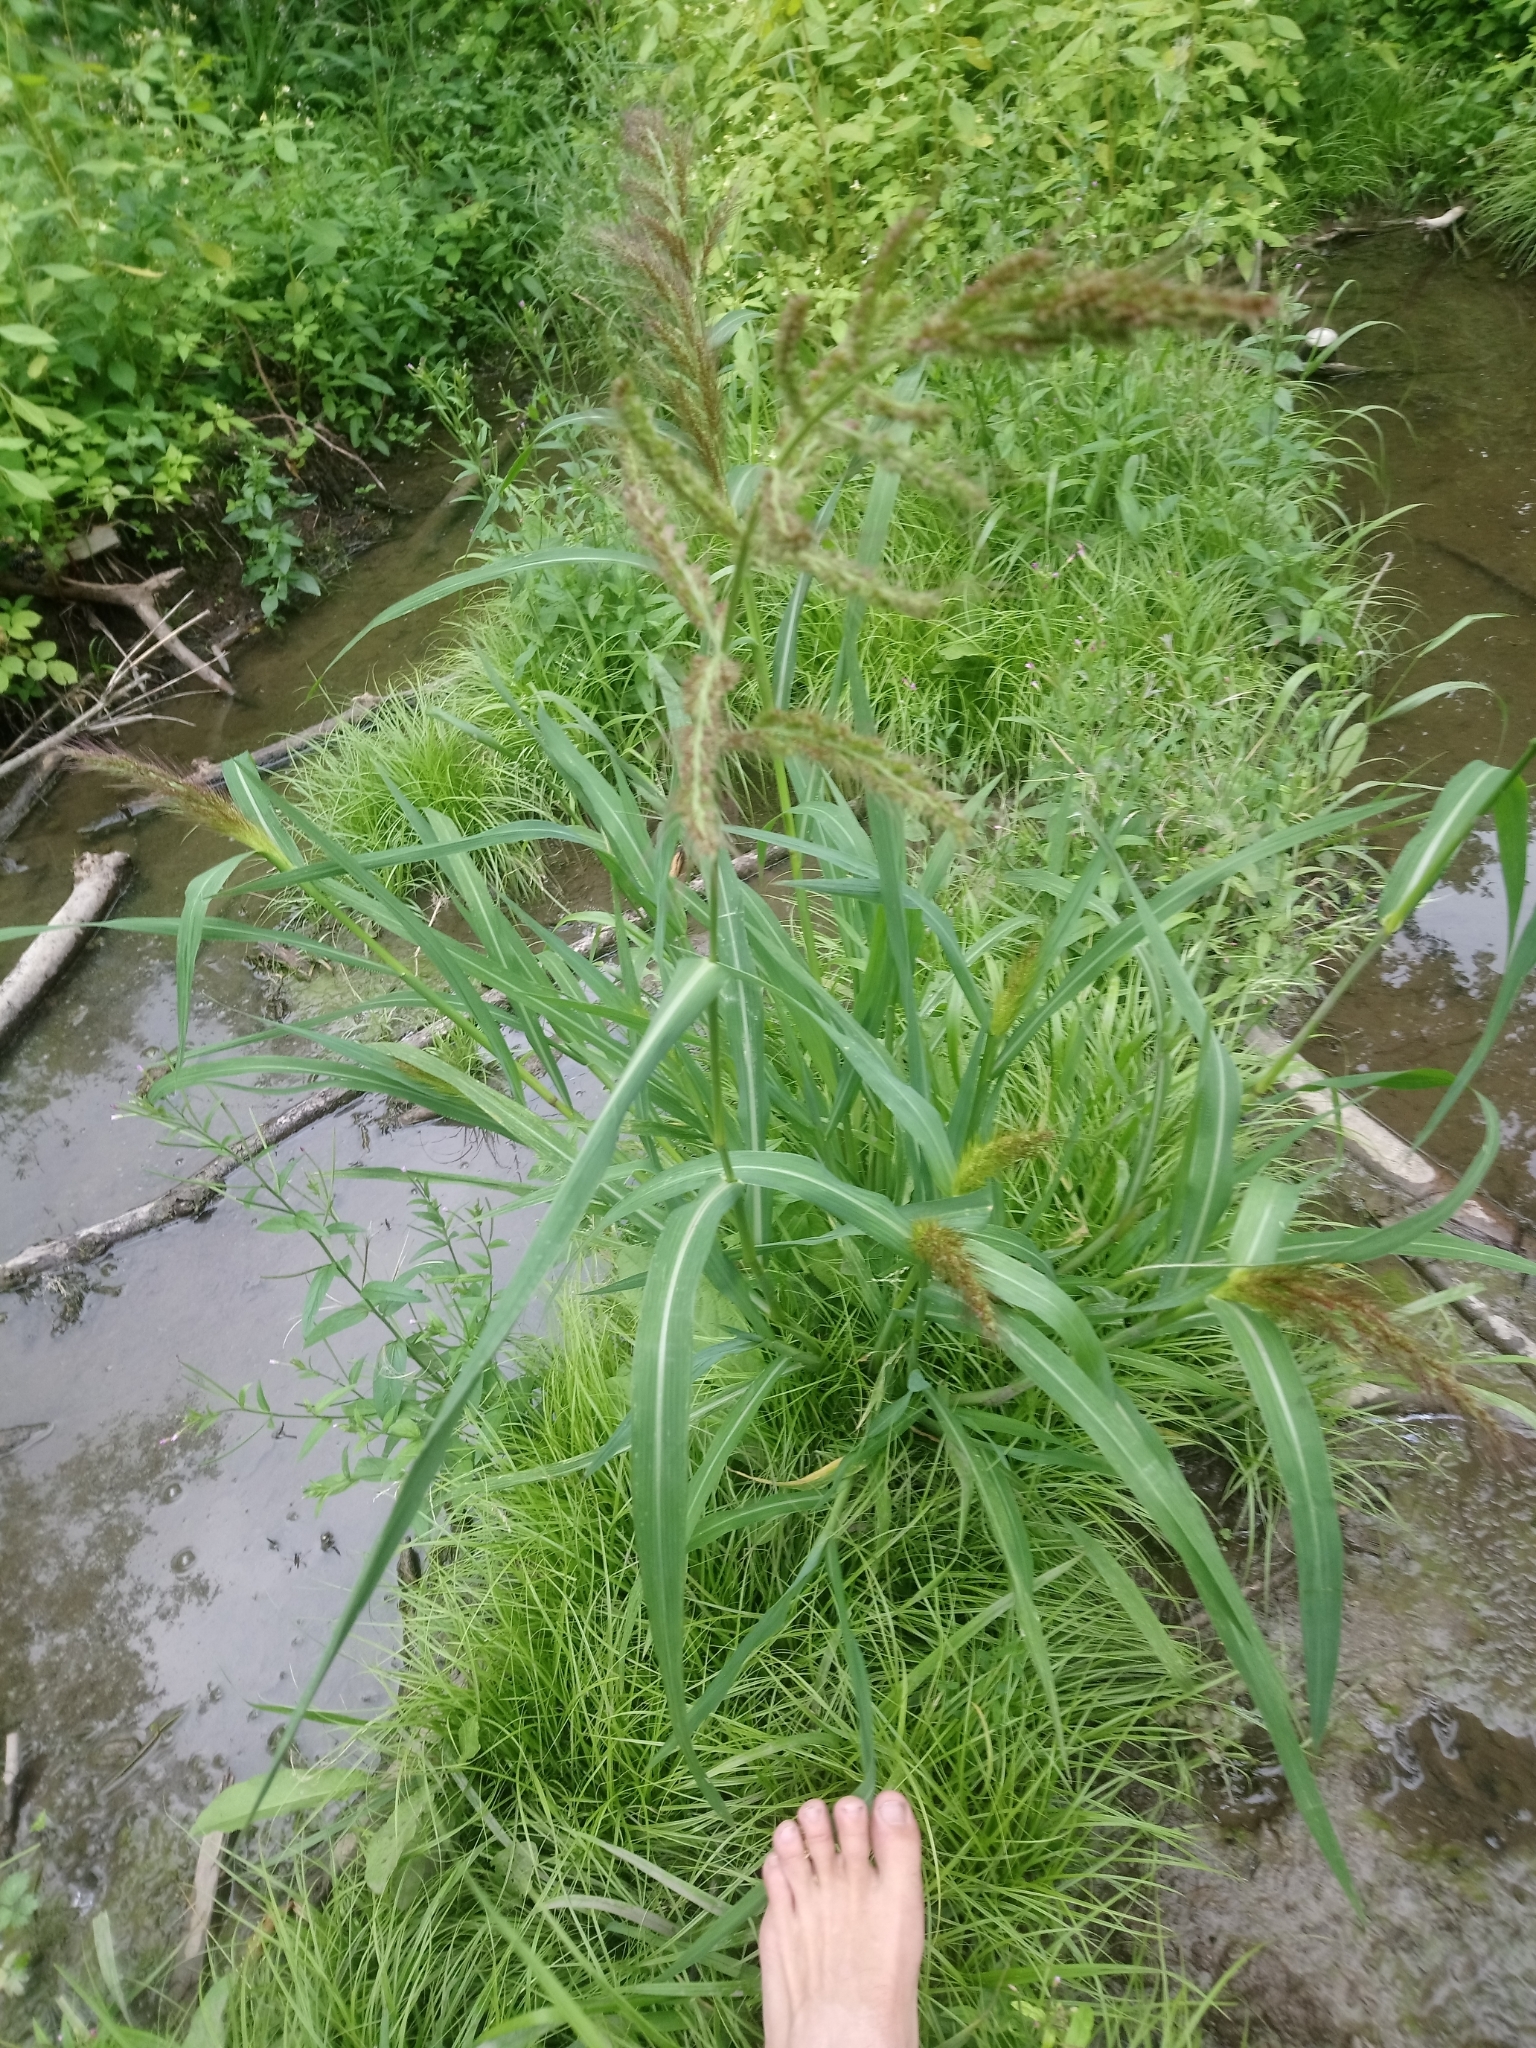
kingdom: Plantae
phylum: Tracheophyta
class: Liliopsida
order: Poales
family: Poaceae
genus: Echinochloa
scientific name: Echinochloa crus-galli
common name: Cockspur
